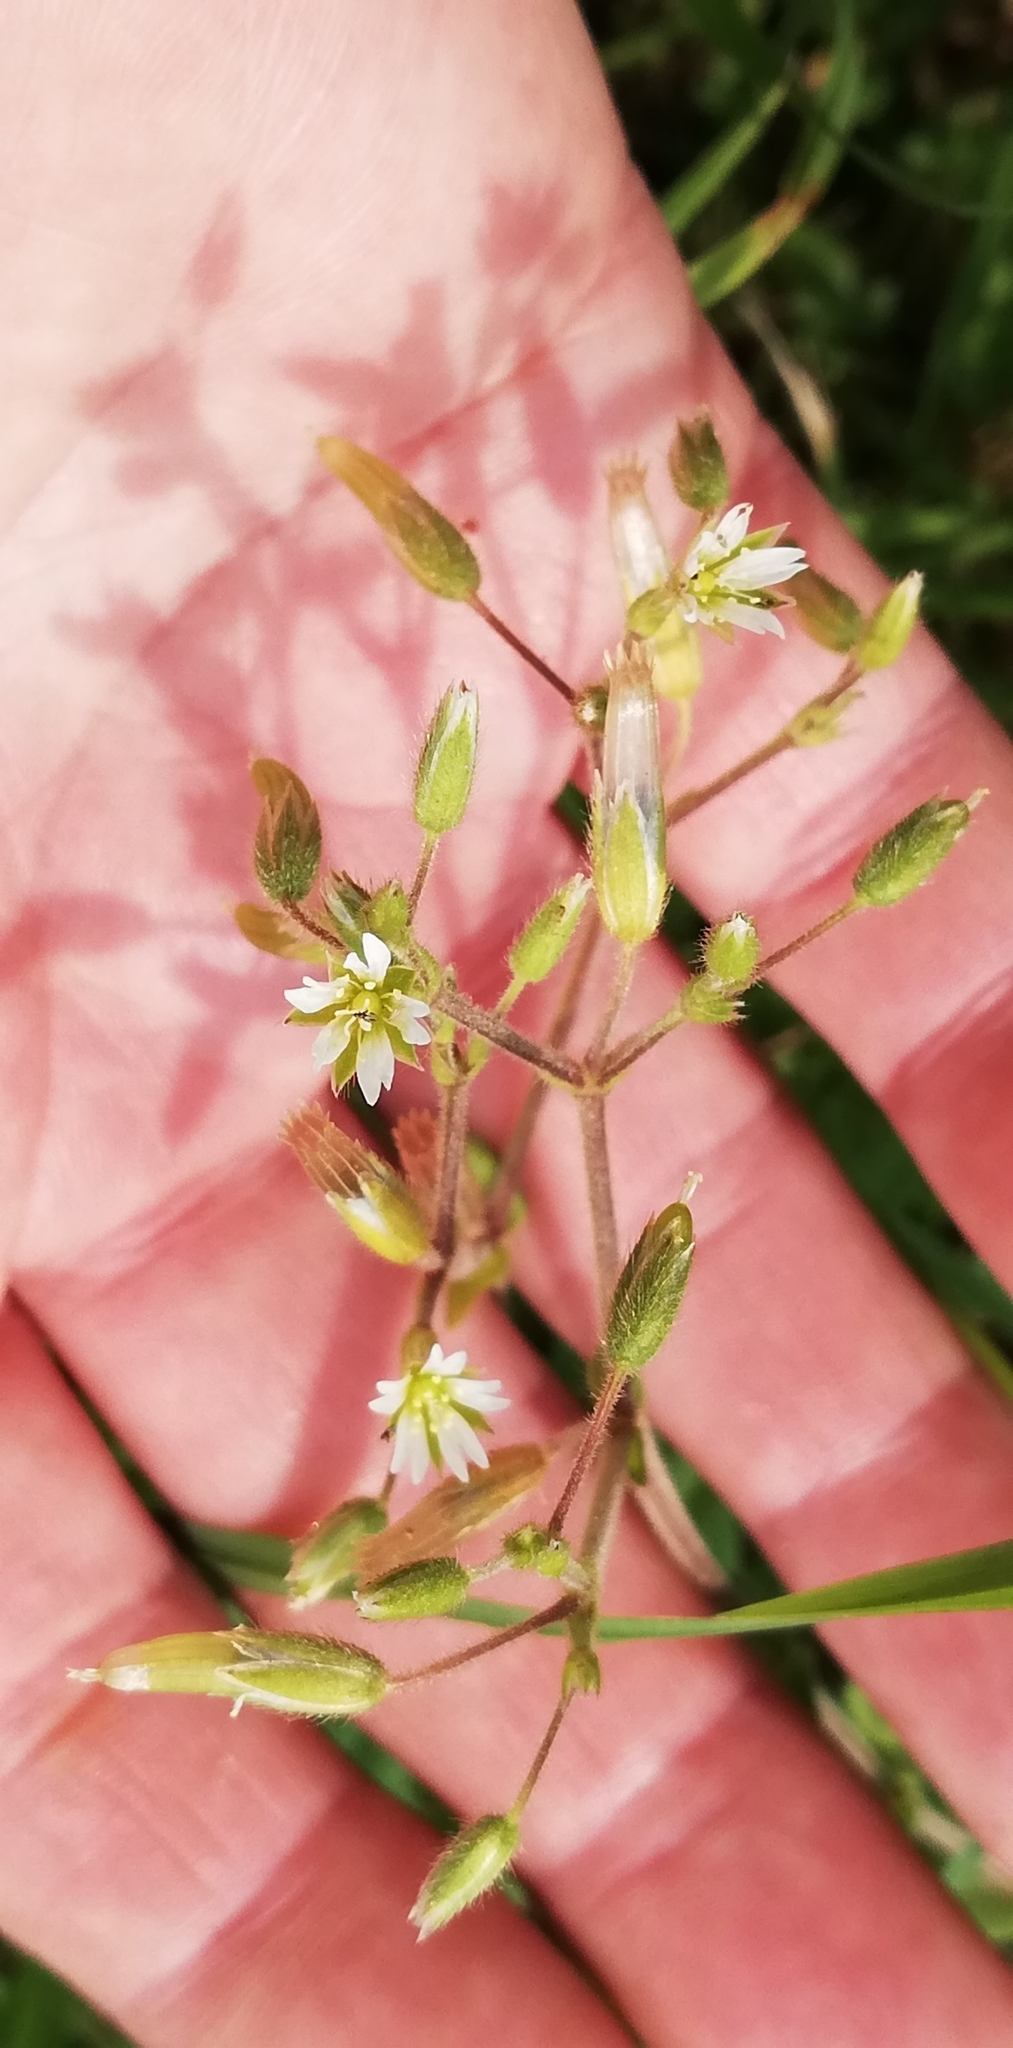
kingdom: Plantae
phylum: Tracheophyta
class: Magnoliopsida
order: Caryophyllales
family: Caryophyllaceae
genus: Cerastium
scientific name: Cerastium holosteoides
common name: Big chickweed
